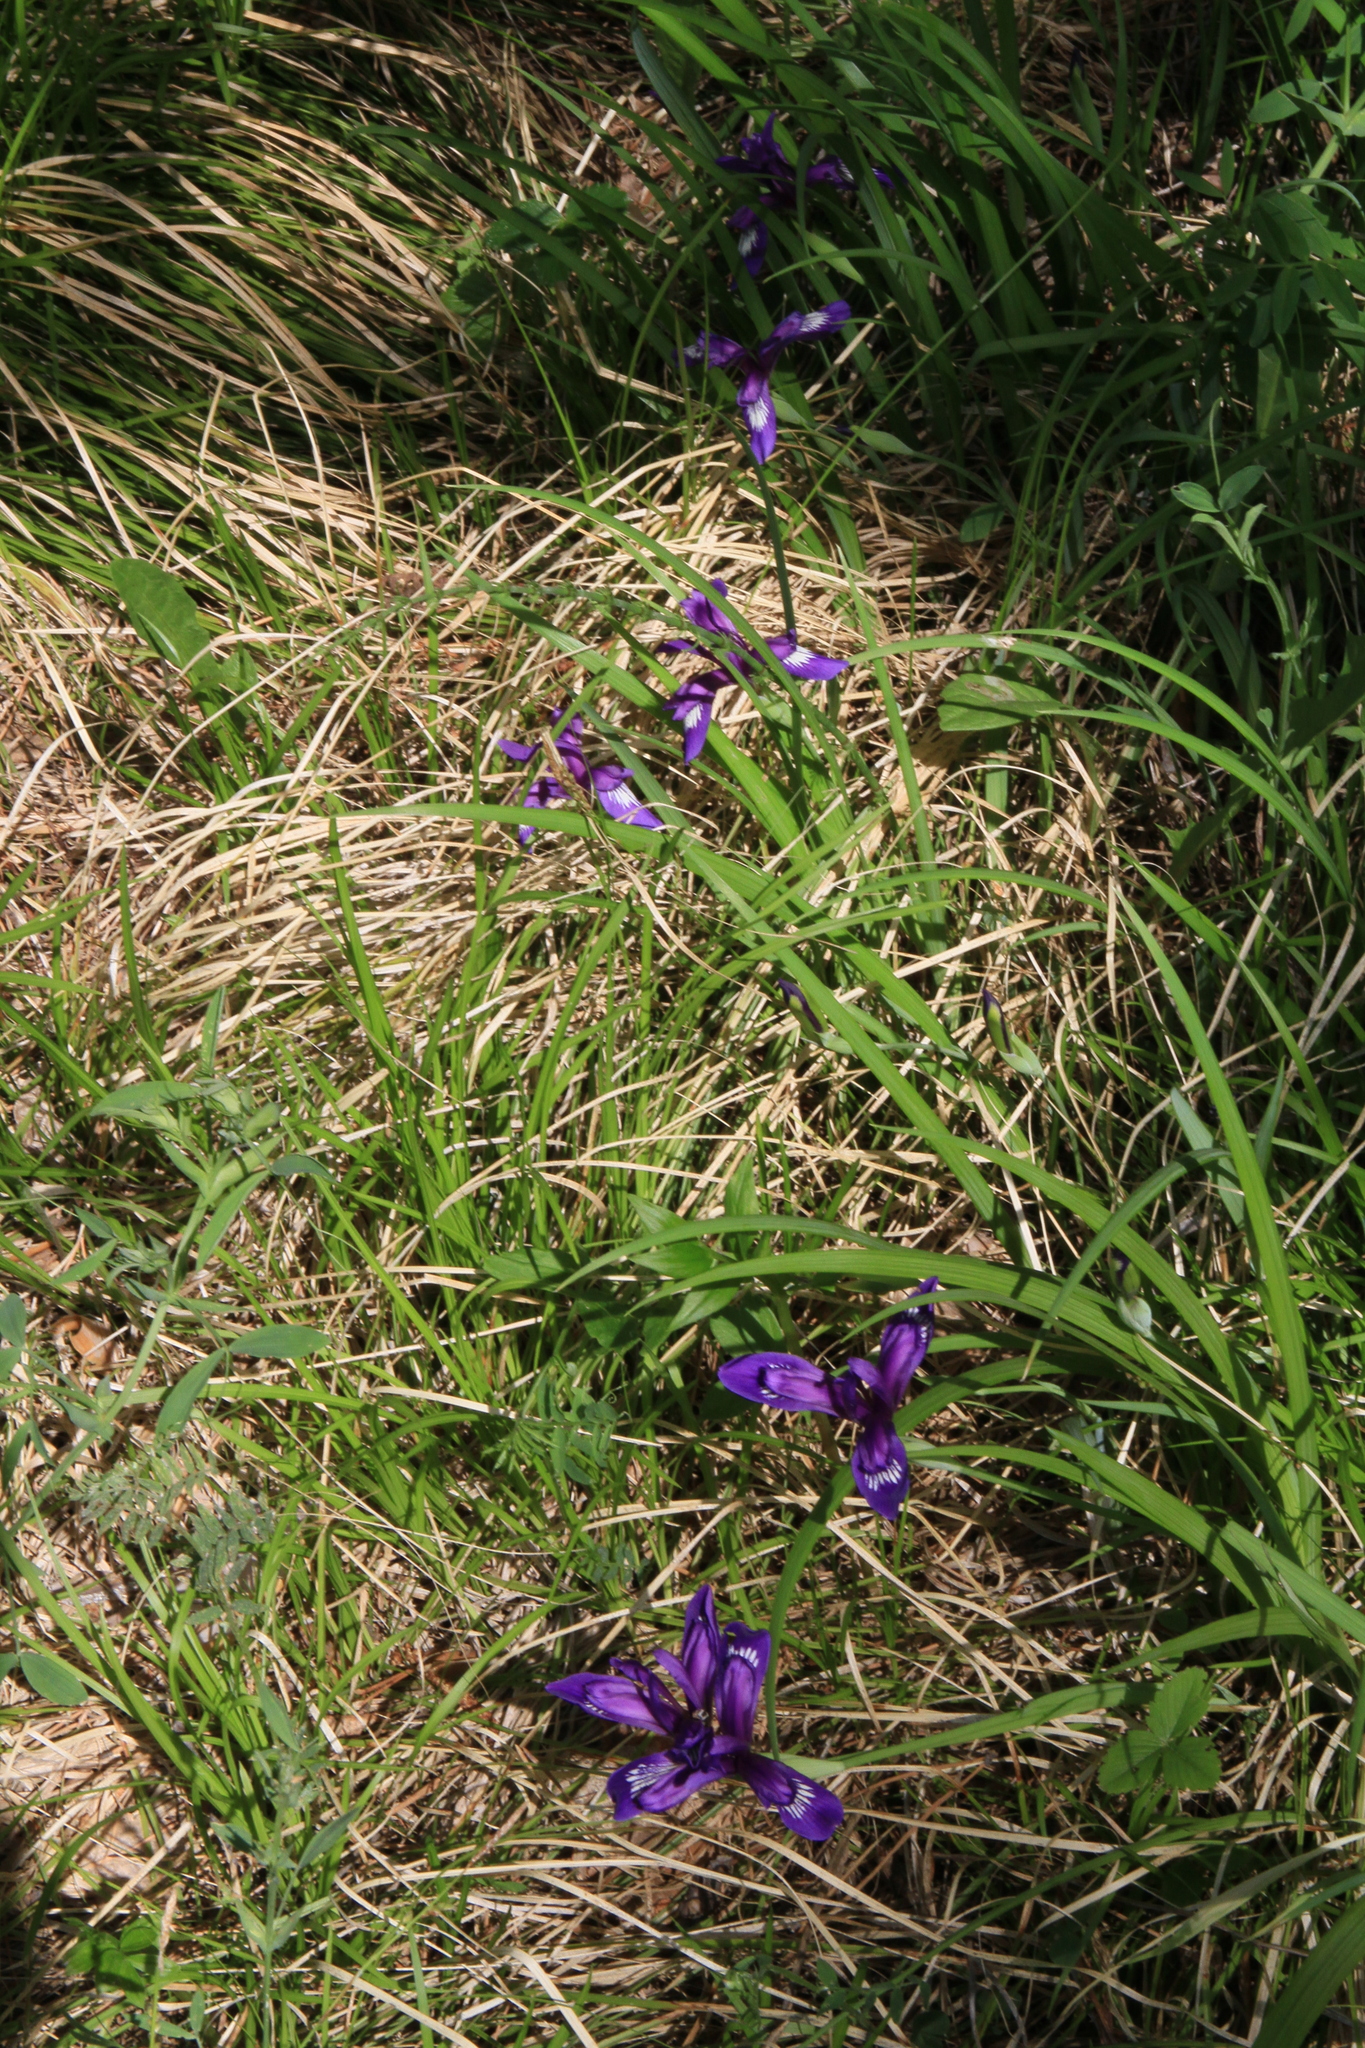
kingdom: Plantae
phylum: Tracheophyta
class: Liliopsida
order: Asparagales
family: Iridaceae
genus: Iris
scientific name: Iris ruthenica
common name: Purple-bract iris
